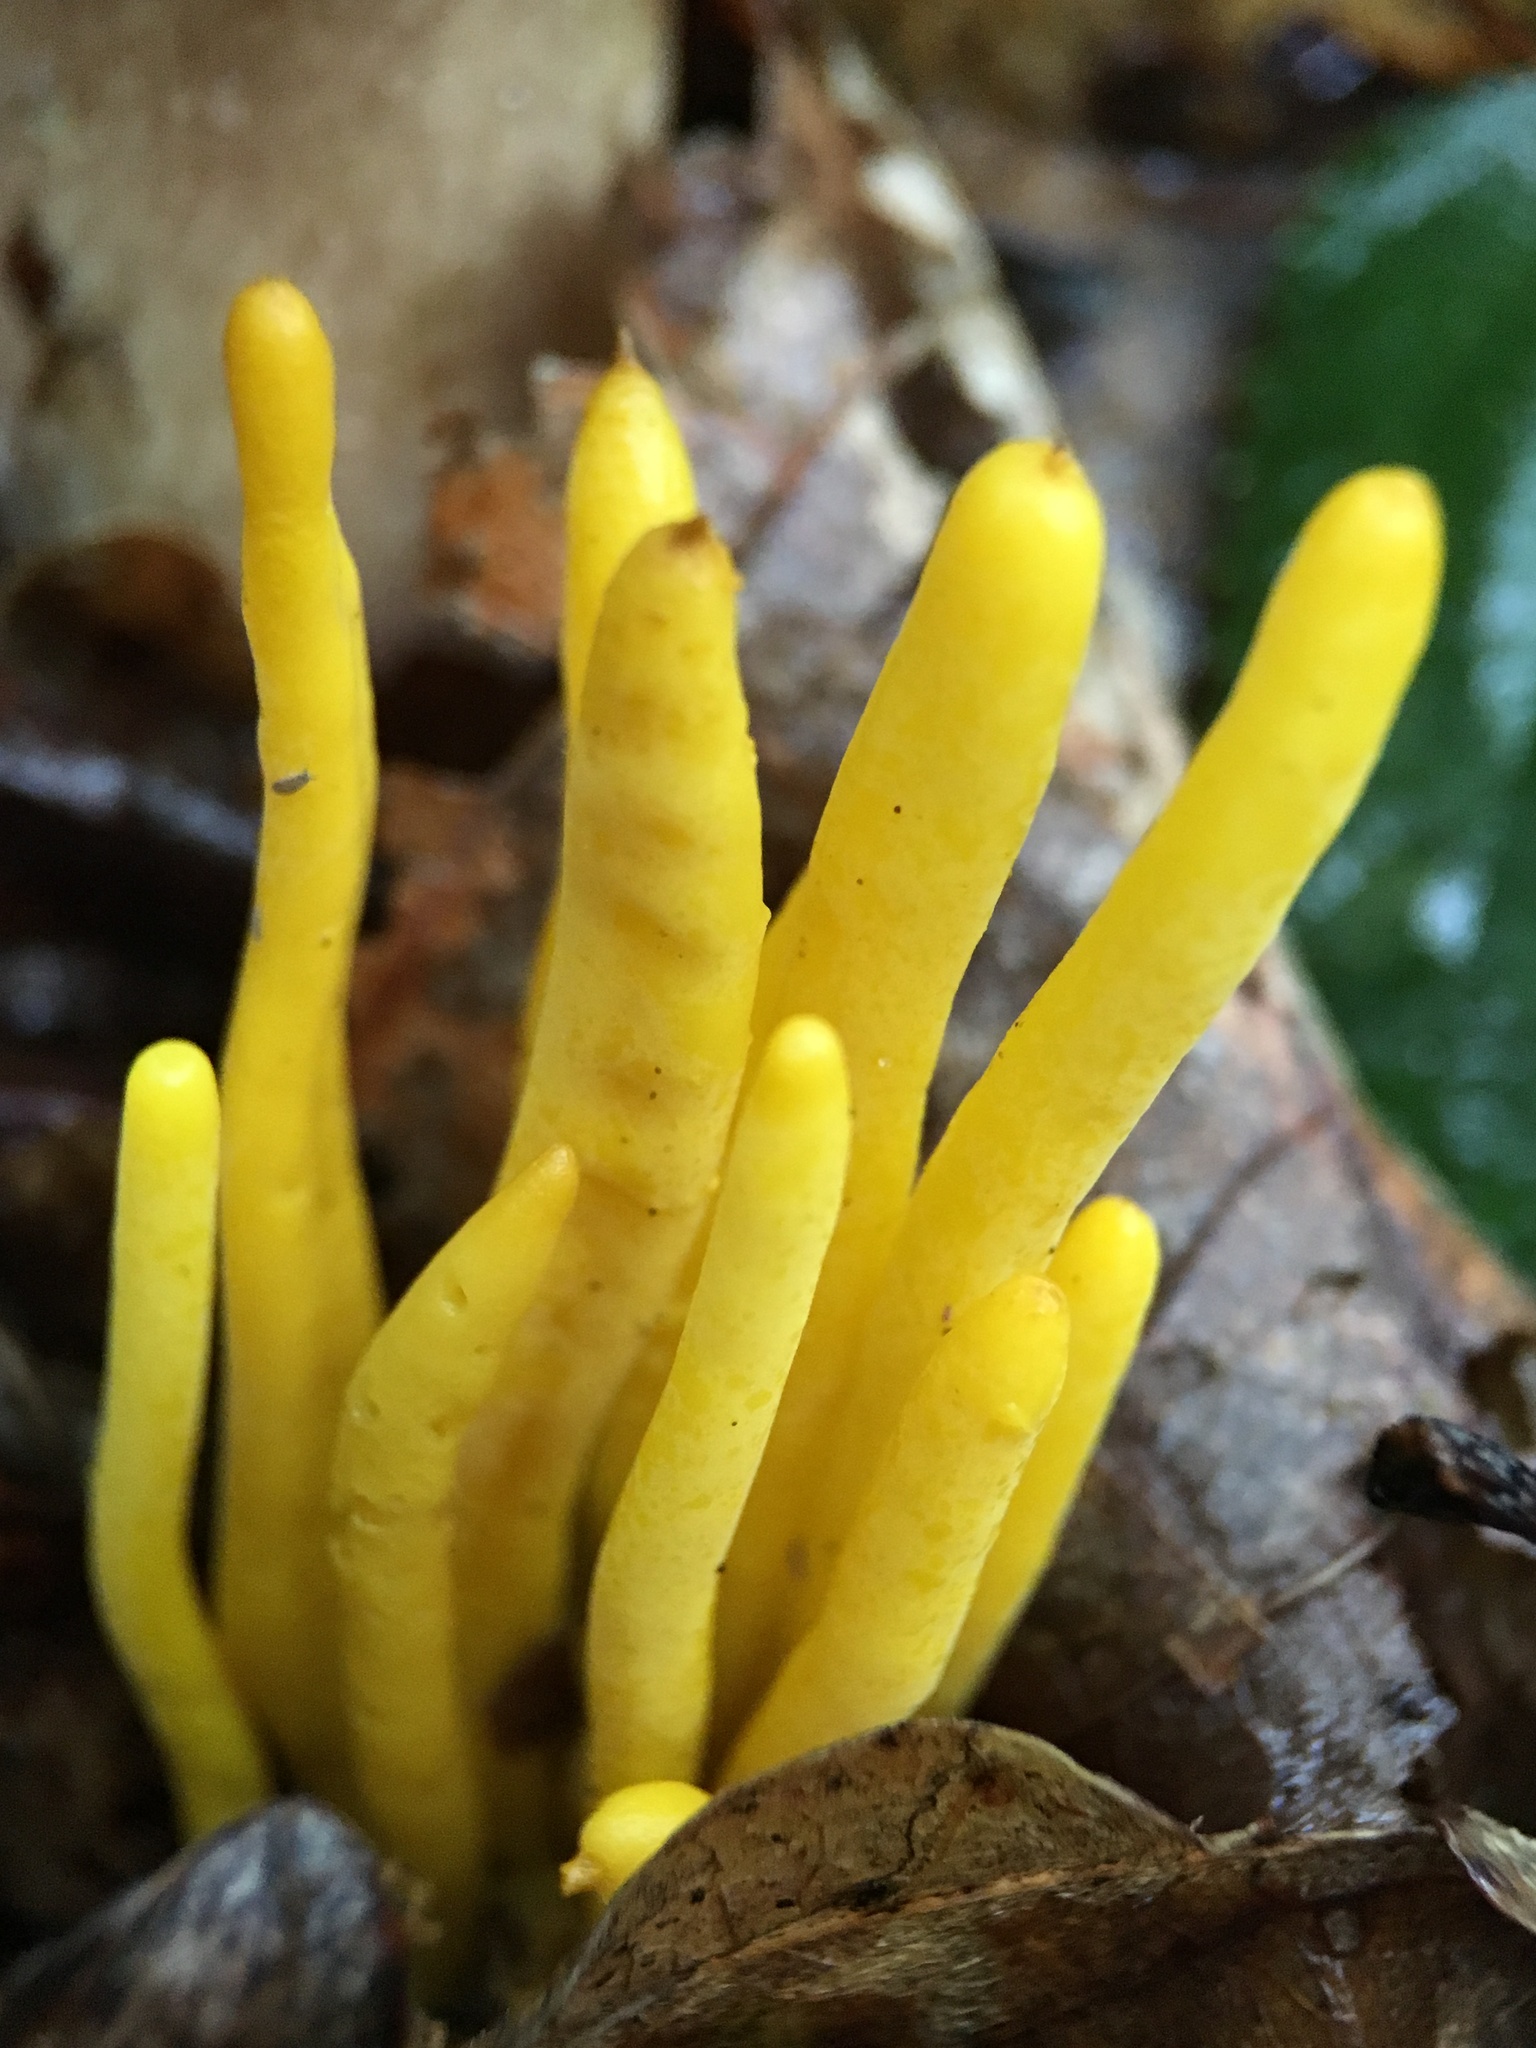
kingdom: Fungi
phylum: Basidiomycota
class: Agaricomycetes
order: Agaricales
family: Clavariaceae
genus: Clavulinopsis
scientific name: Clavulinopsis fusiformis
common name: Golden spindles
